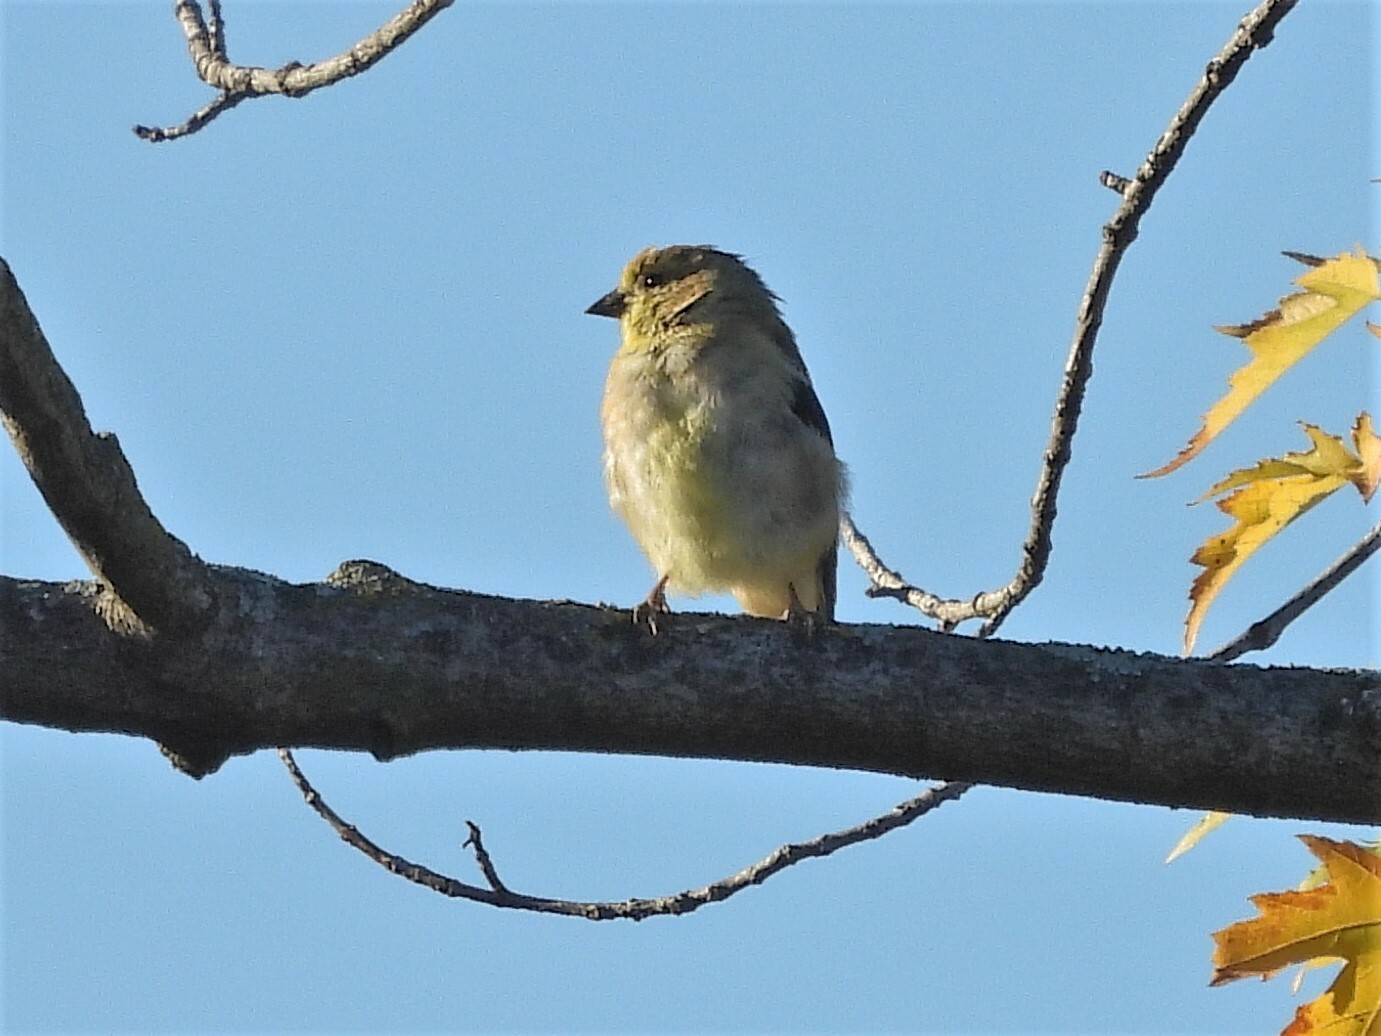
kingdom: Animalia
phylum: Chordata
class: Aves
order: Passeriformes
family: Fringillidae
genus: Spinus
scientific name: Spinus tristis
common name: American goldfinch
